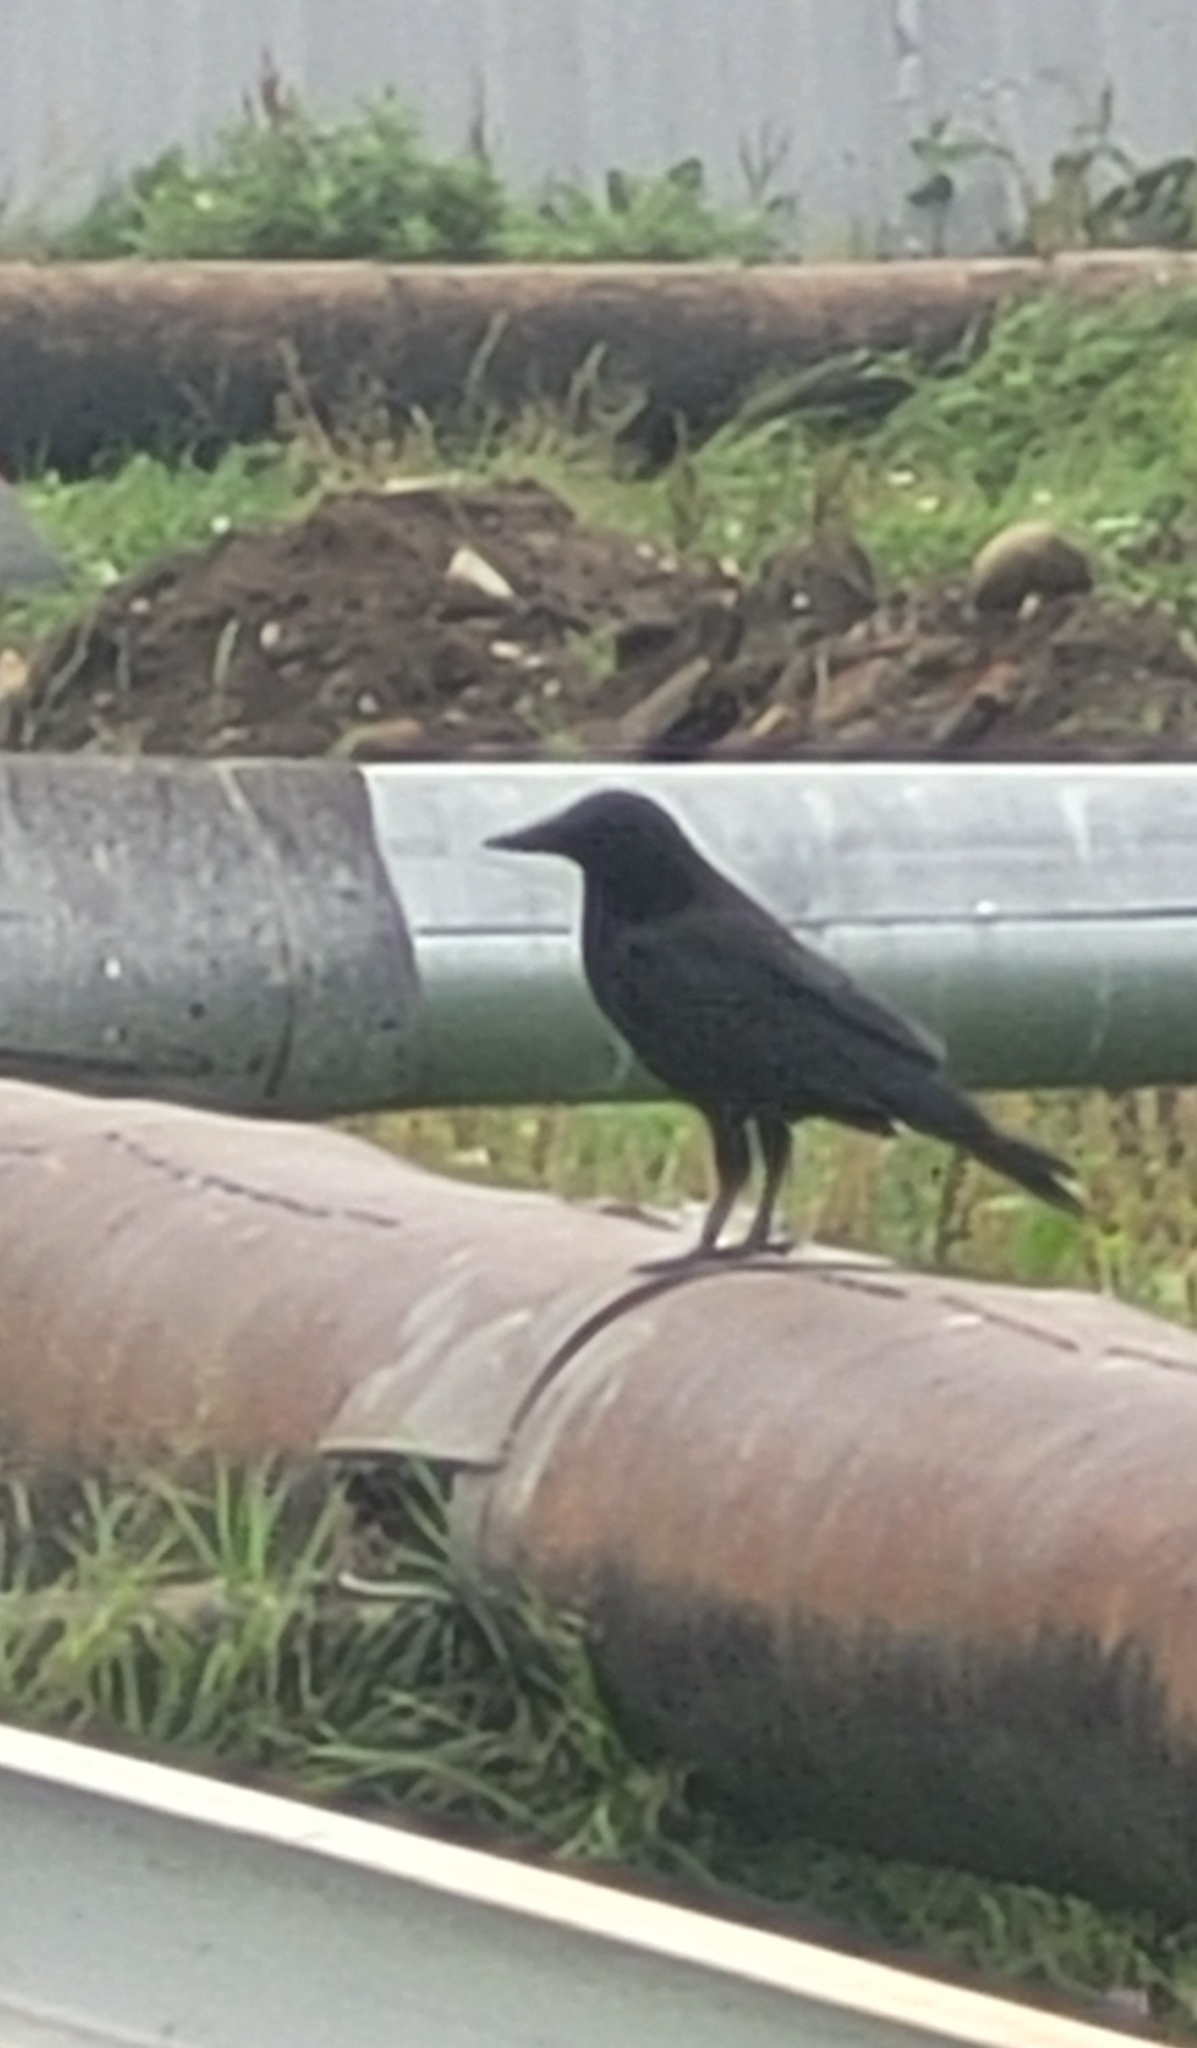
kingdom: Animalia
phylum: Chordata
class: Aves
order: Passeriformes
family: Corvidae
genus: Corvus
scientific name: Corvus corone
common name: Carrion crow
